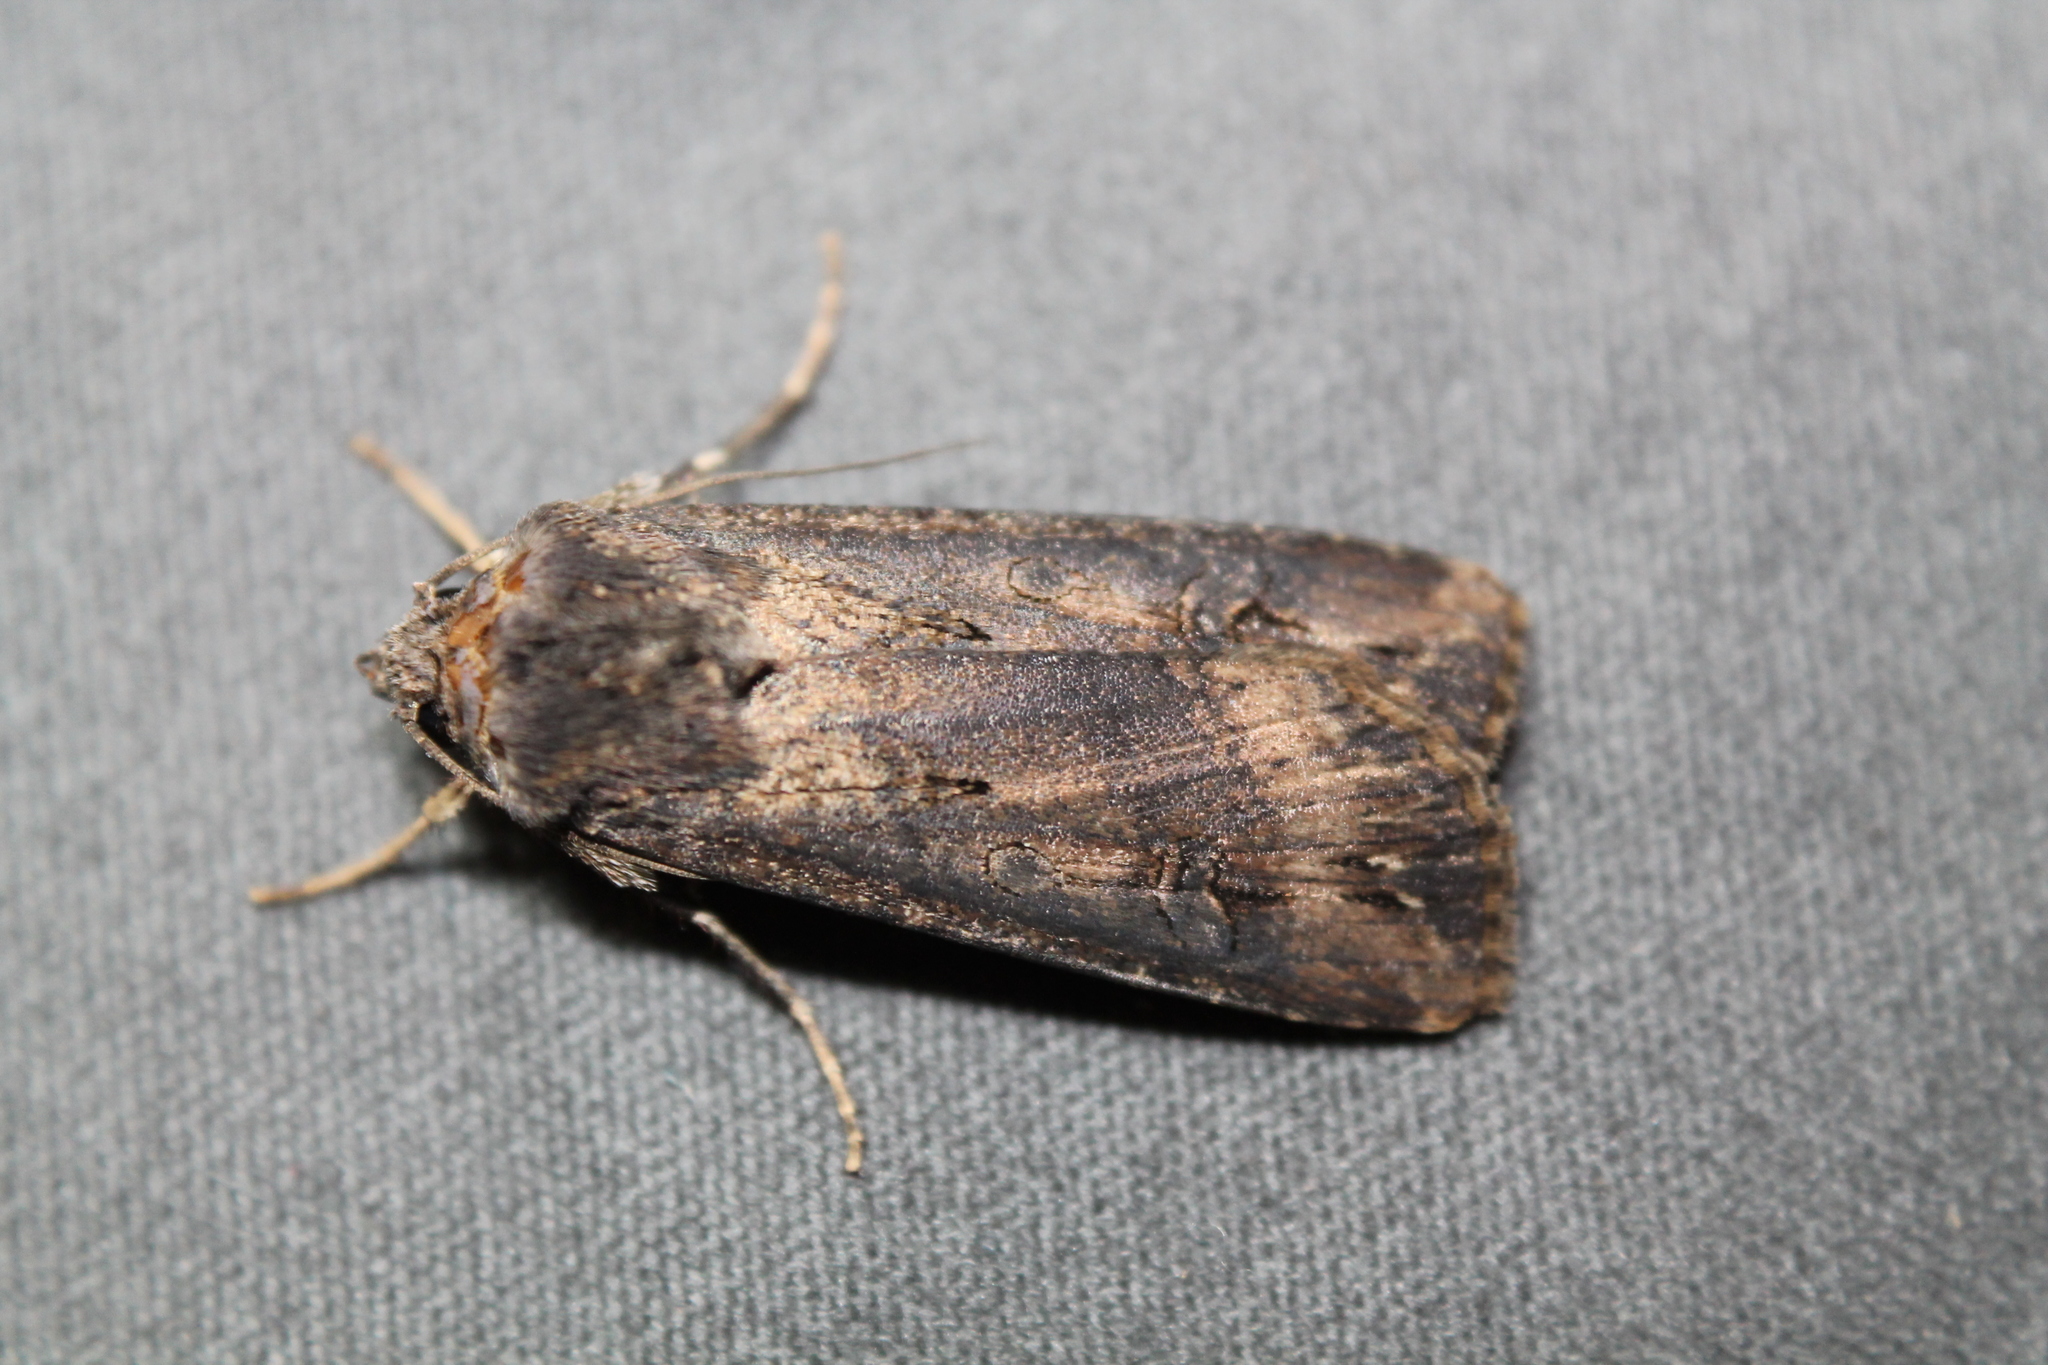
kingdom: Animalia
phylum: Arthropoda
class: Insecta
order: Lepidoptera
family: Noctuidae
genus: Agrotis
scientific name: Agrotis ipsilon
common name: Dark sword-grass
